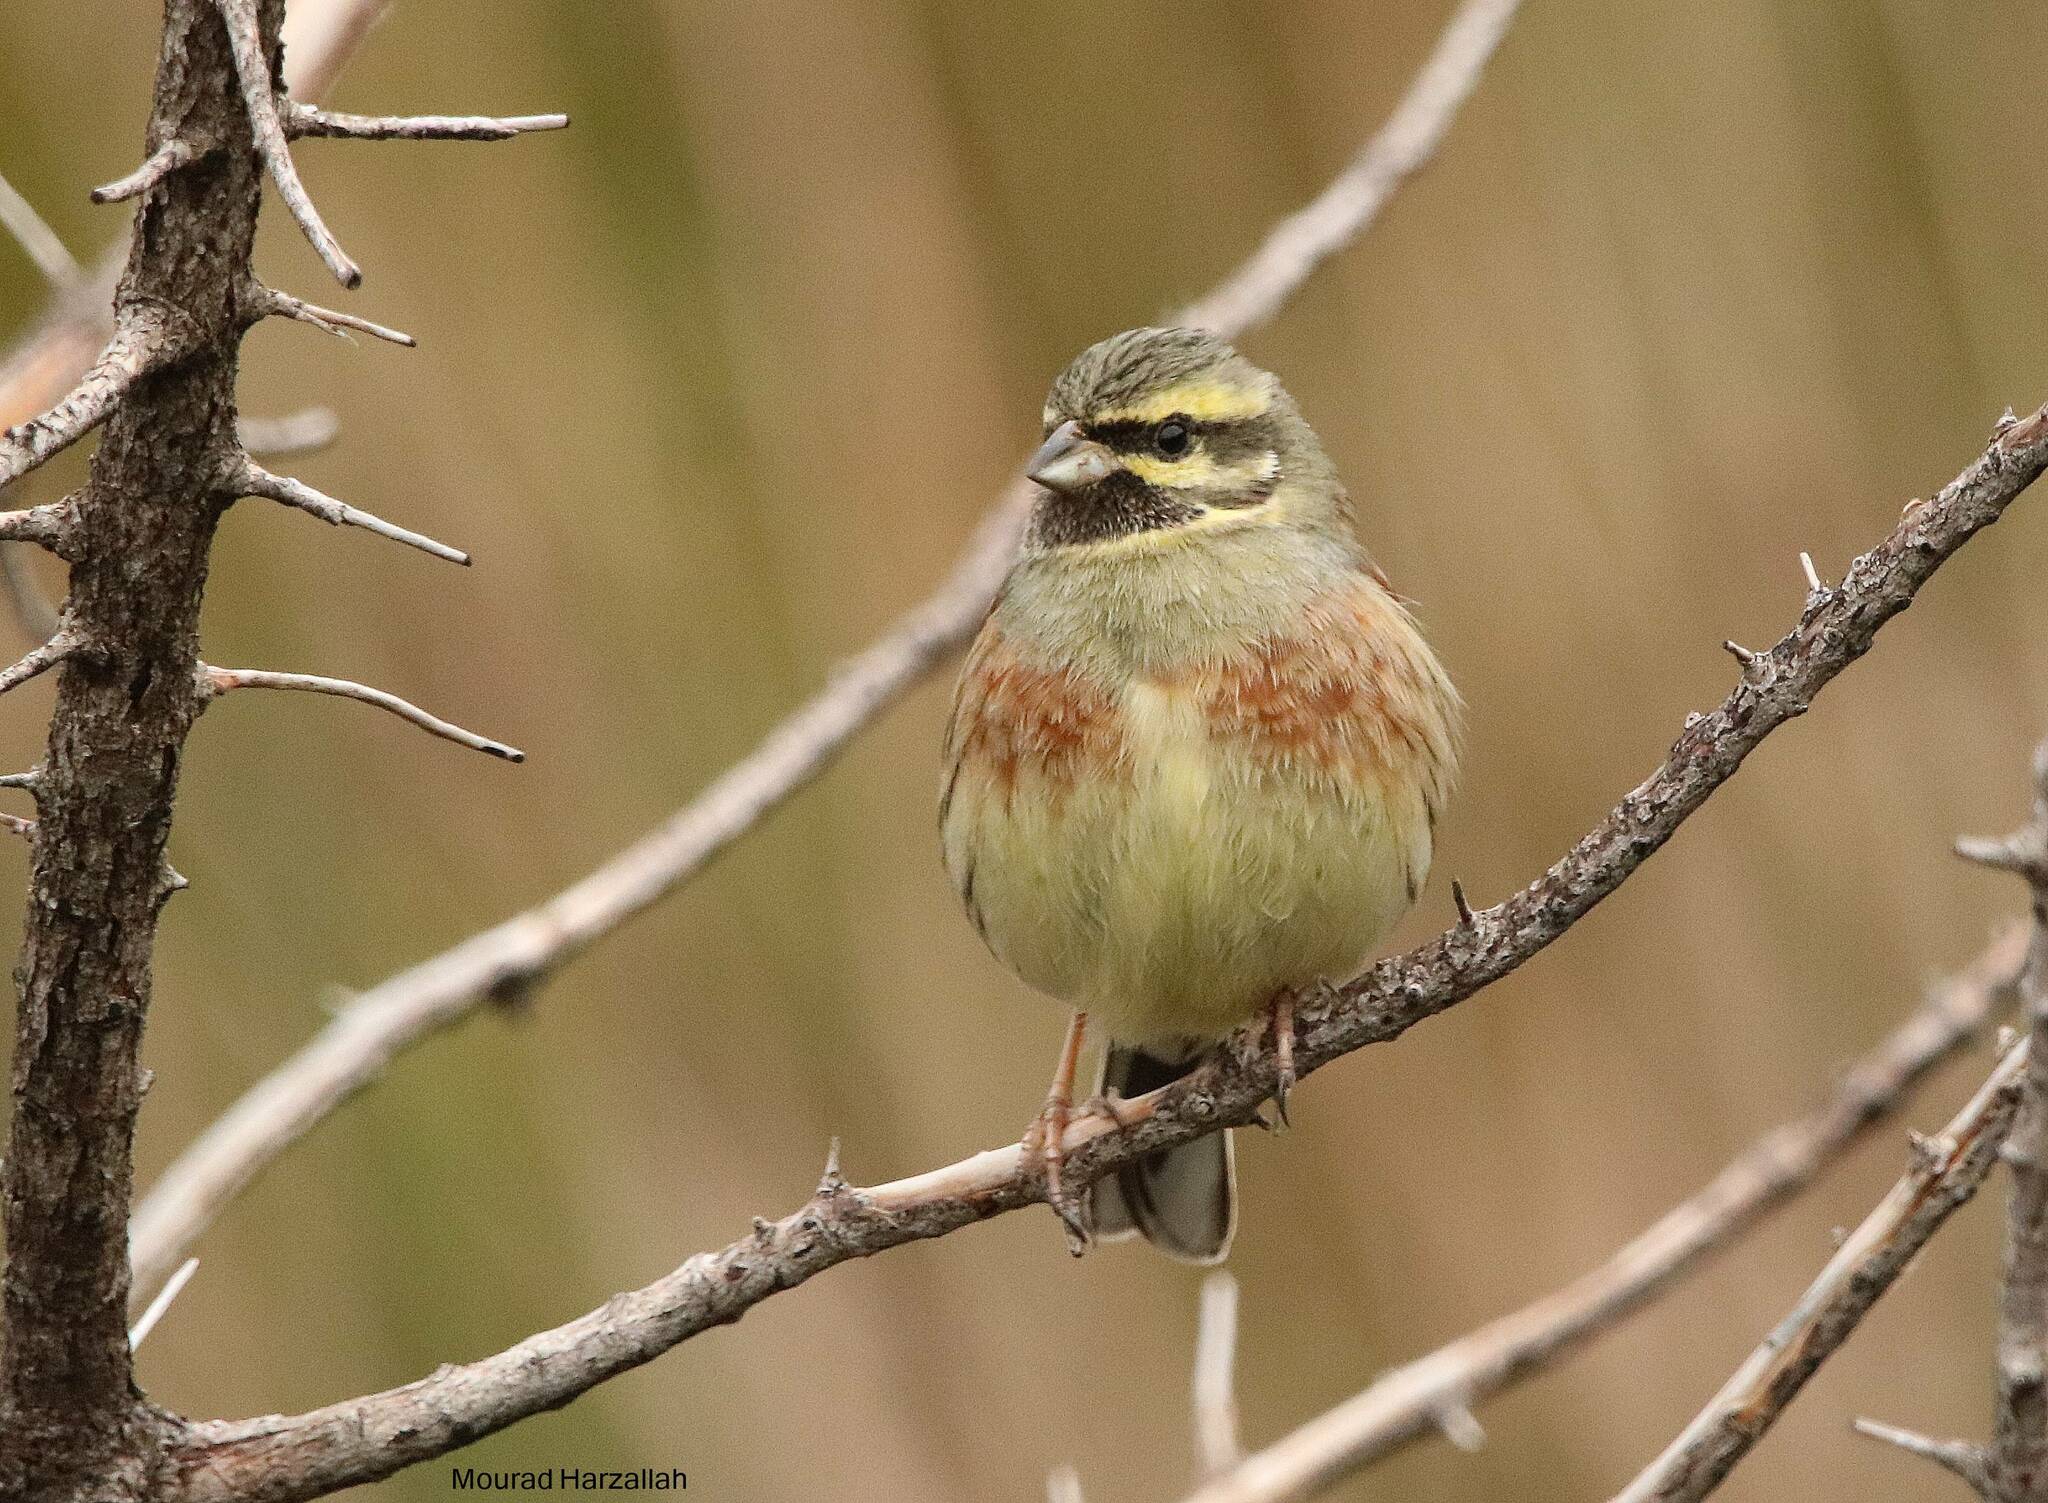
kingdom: Animalia
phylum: Chordata
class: Aves
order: Passeriformes
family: Emberizidae
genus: Emberiza
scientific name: Emberiza cirlus
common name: Cirl bunting
